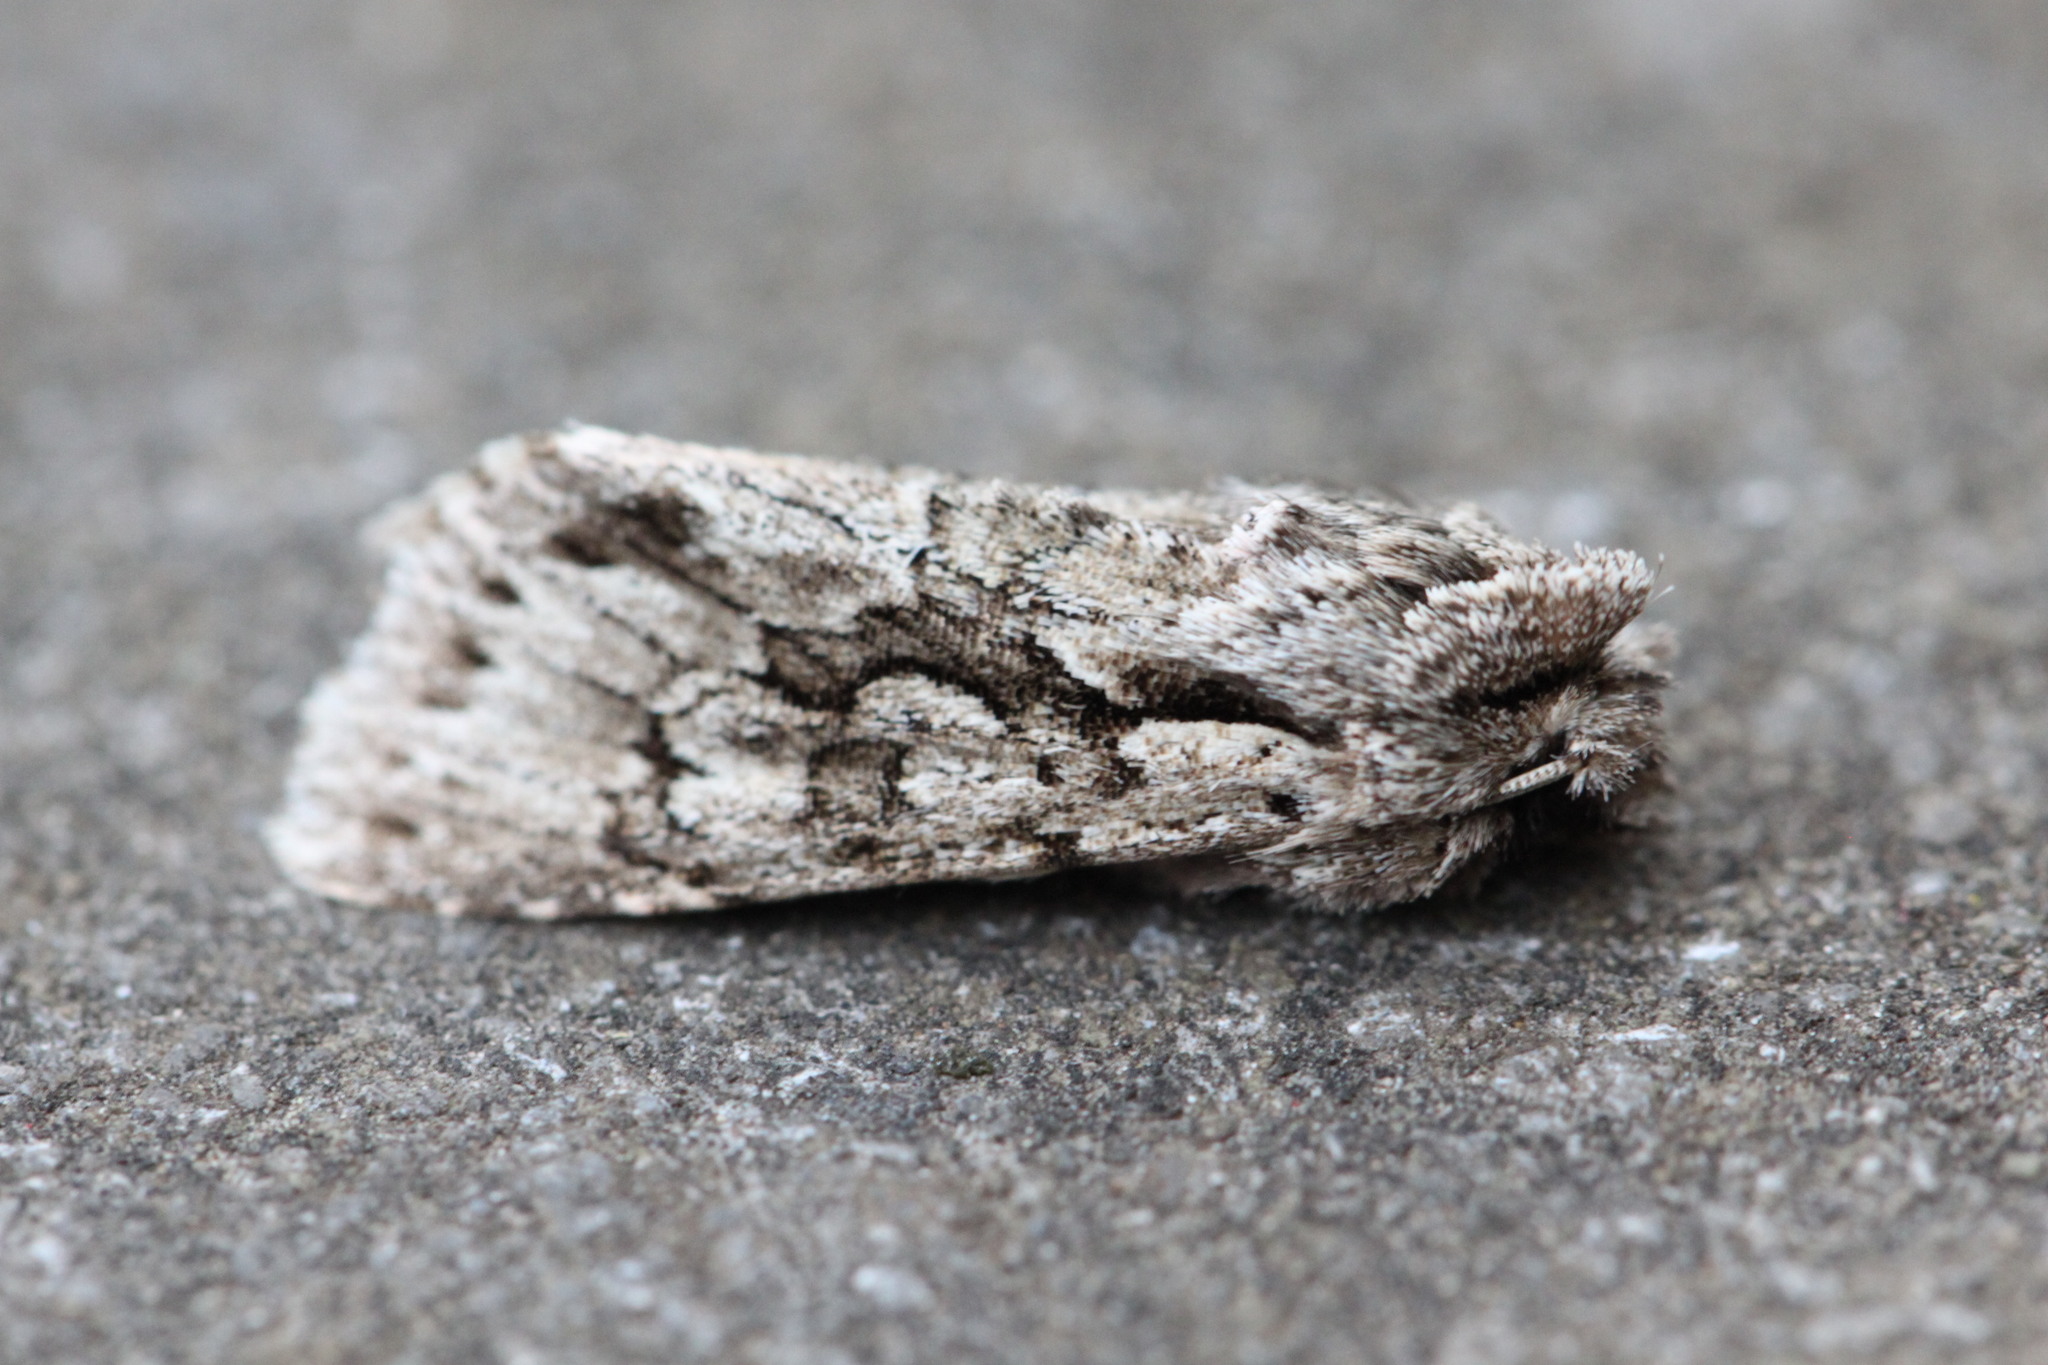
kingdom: Animalia
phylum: Arthropoda
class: Insecta
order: Lepidoptera
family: Noctuidae
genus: Xylocampa
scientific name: Xylocampa areola
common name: Early grey
